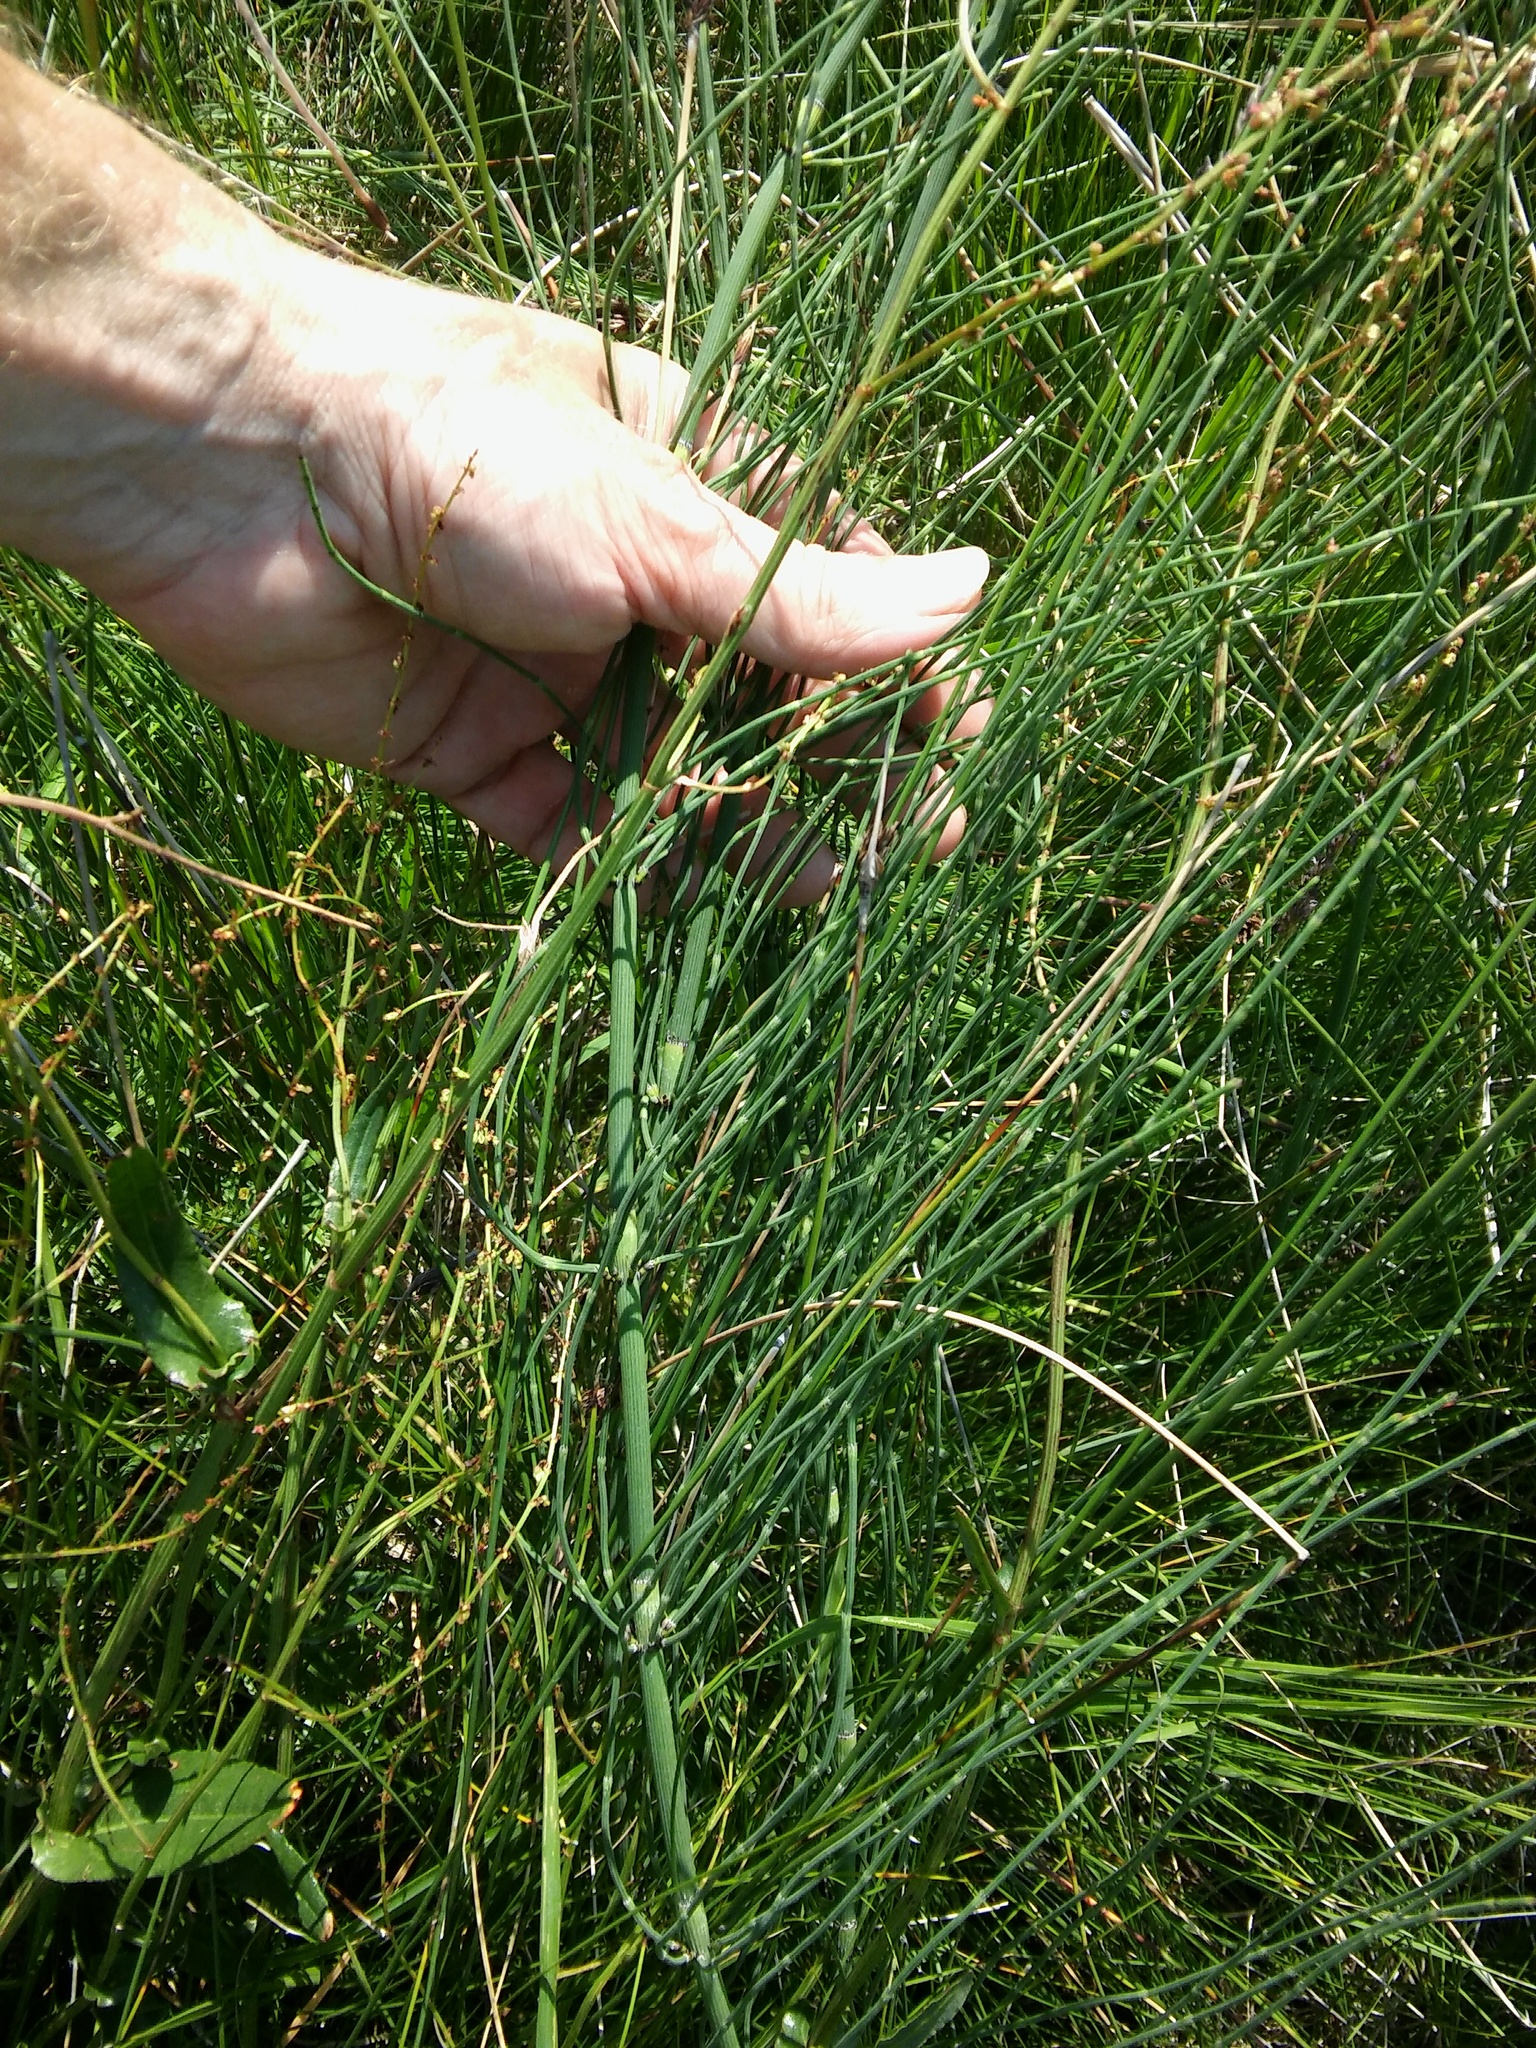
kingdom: Plantae
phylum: Tracheophyta
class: Polypodiopsida
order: Equisetales
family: Equisetaceae
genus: Equisetum
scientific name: Equisetum ramosissimum
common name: Branched horsetail
